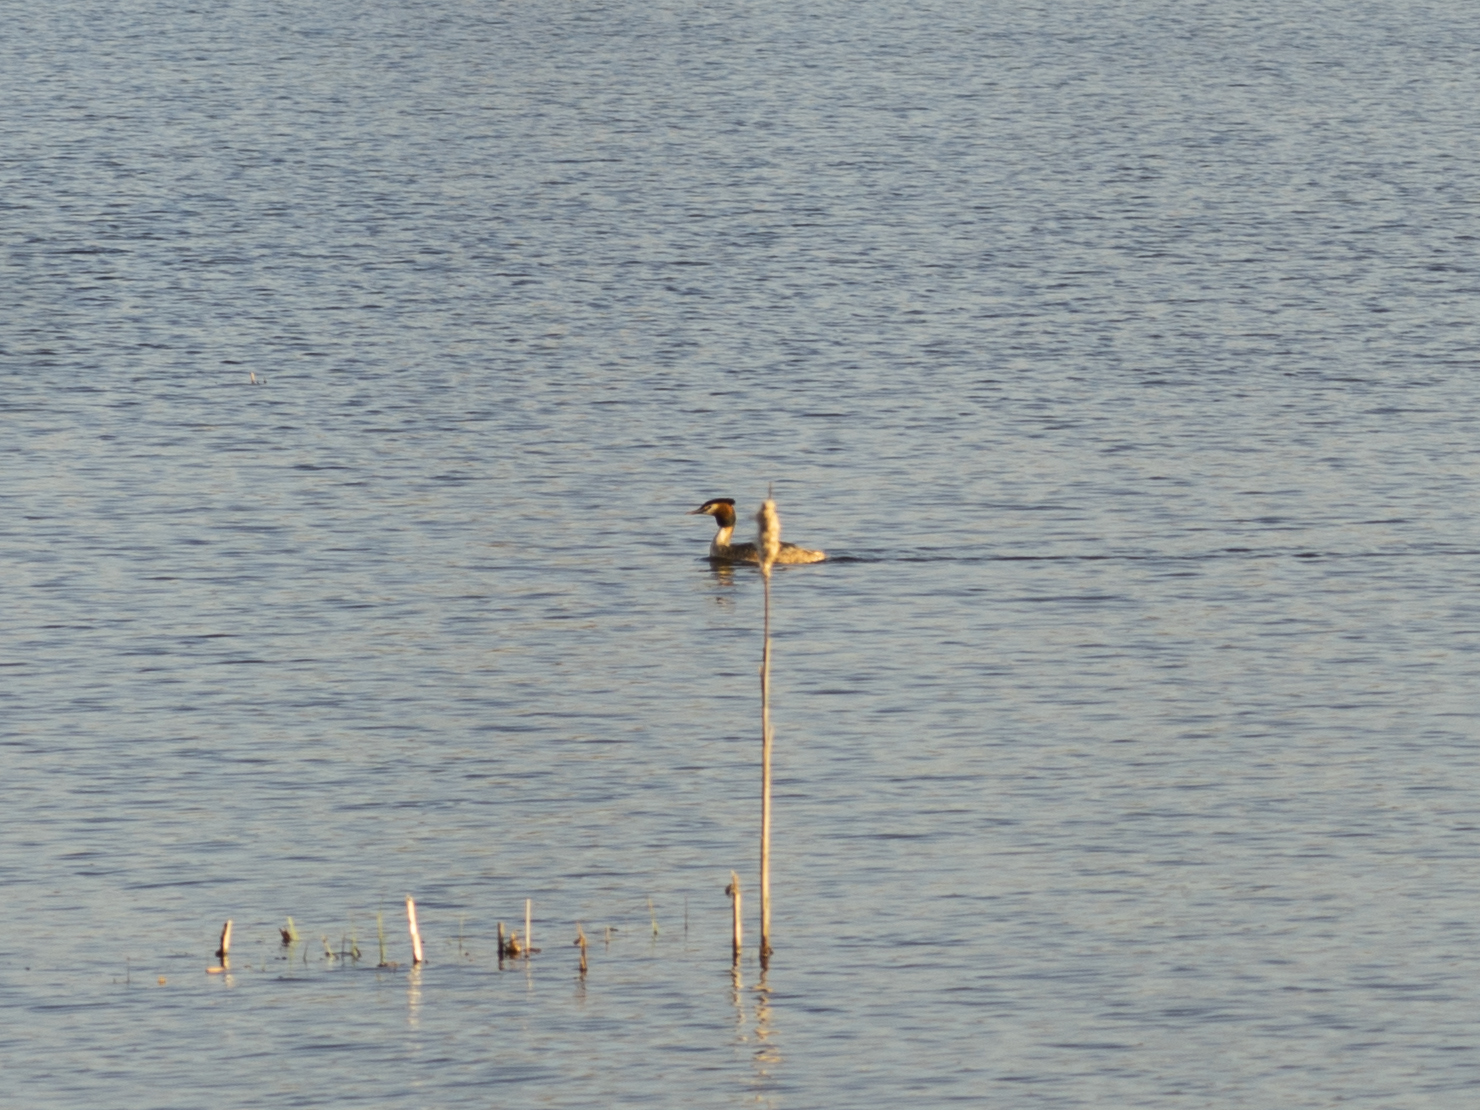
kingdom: Animalia
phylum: Chordata
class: Aves
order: Podicipediformes
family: Podicipedidae
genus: Podiceps
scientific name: Podiceps cristatus
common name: Great crested grebe
